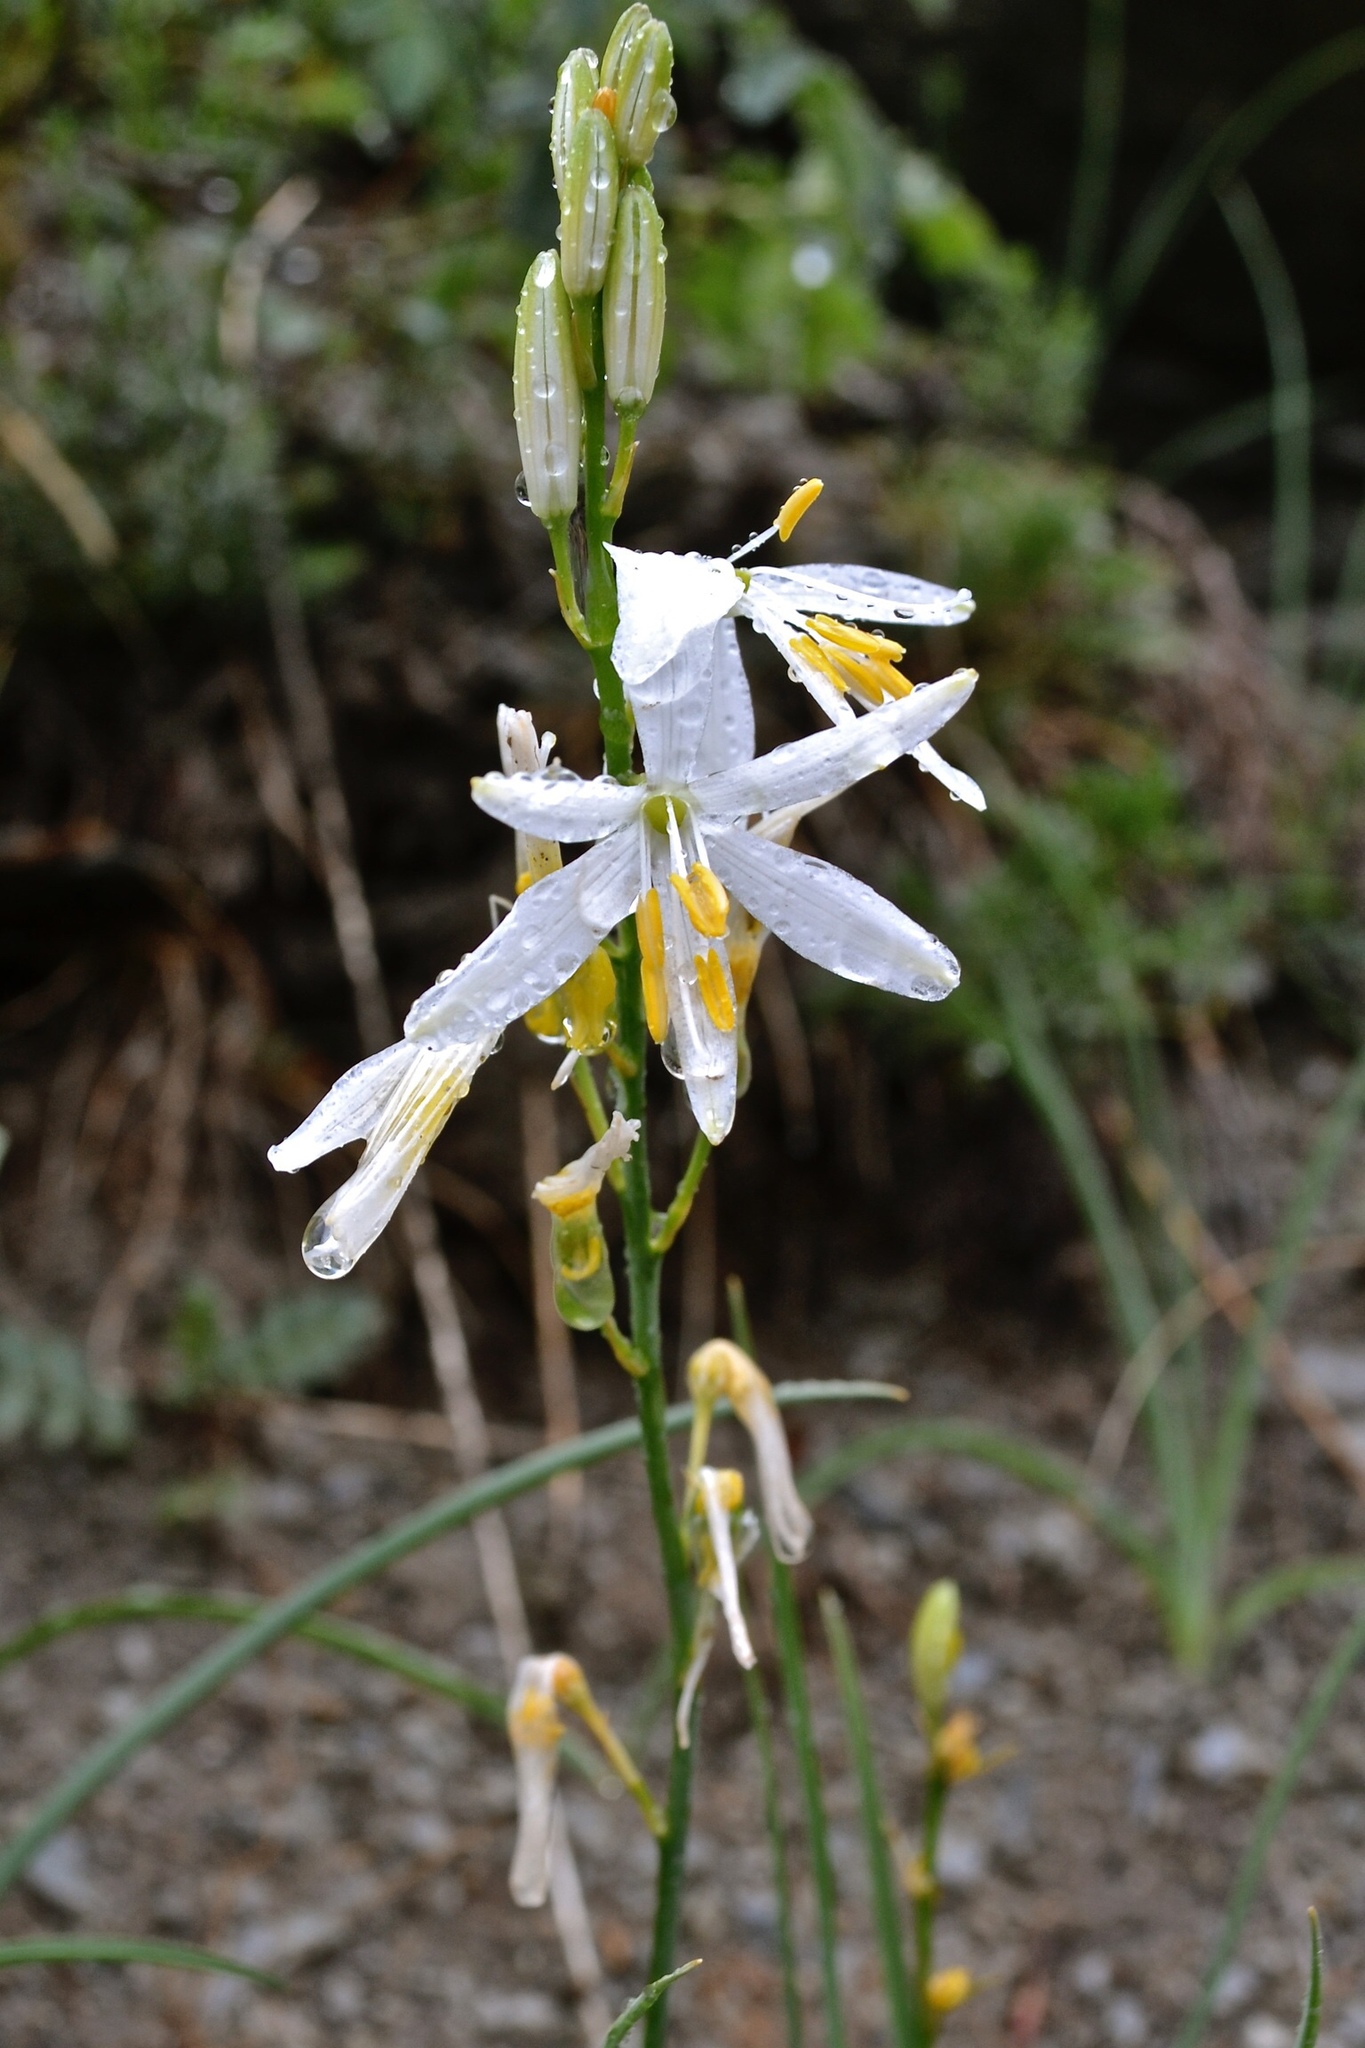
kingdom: Plantae
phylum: Tracheophyta
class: Liliopsida
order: Asparagales
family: Asparagaceae
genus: Anthericum
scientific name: Anthericum liliago
